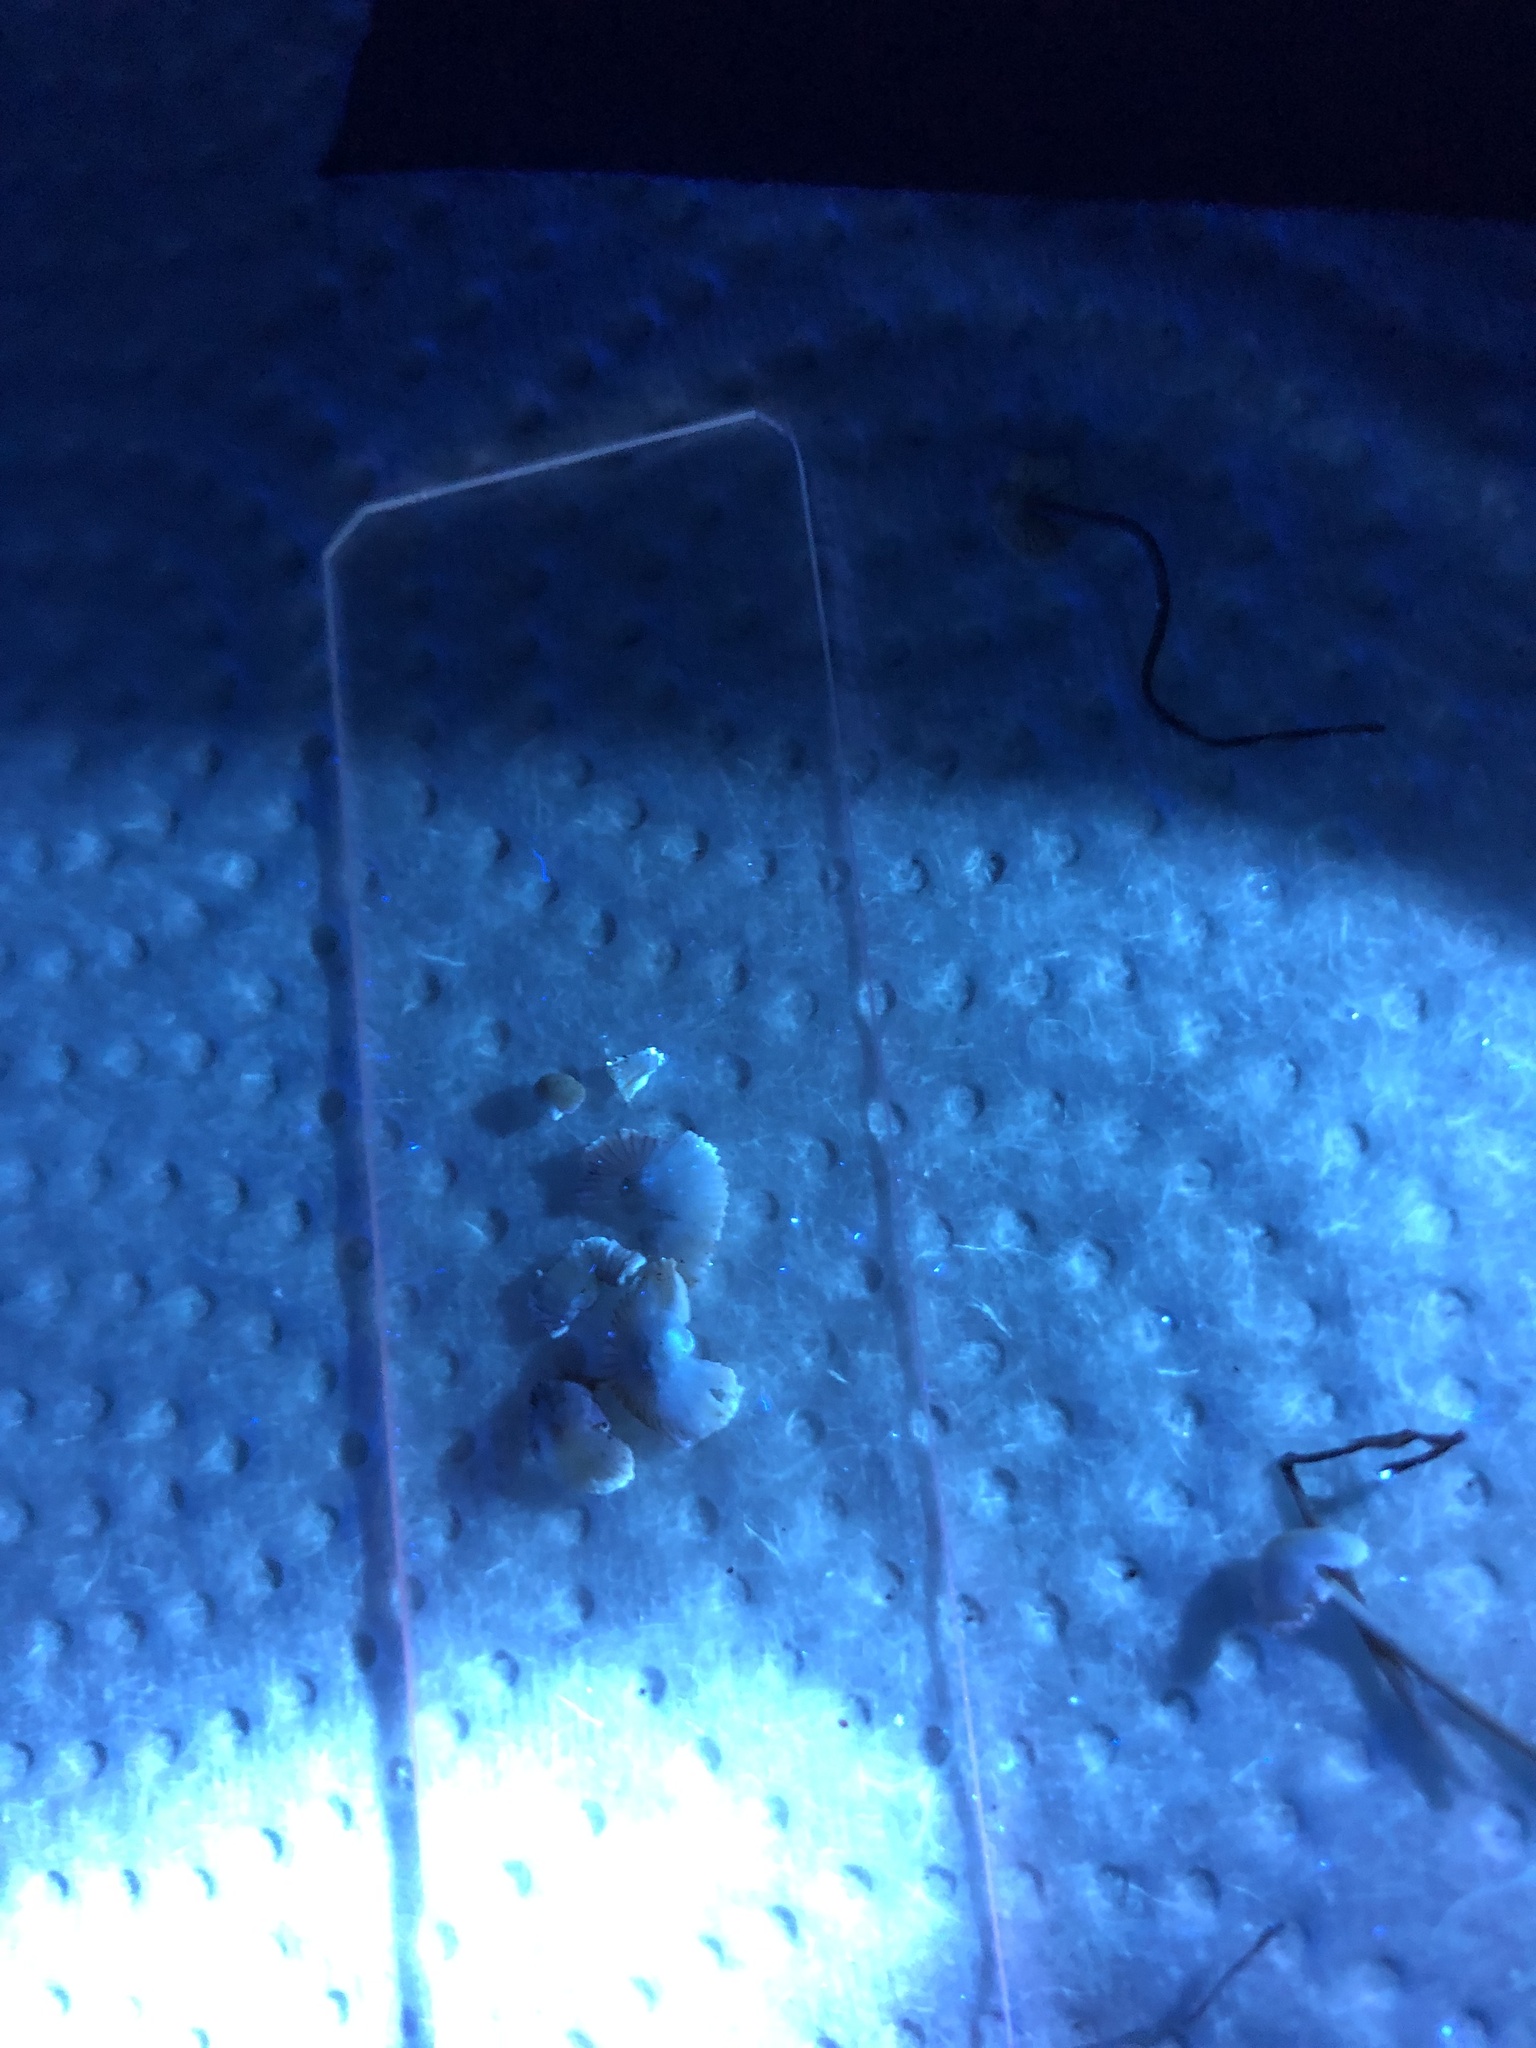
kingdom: Fungi
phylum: Basidiomycota
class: Agaricomycetes
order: Agaricales
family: Mycenaceae
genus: Mycena
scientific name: Mycena rebaudengoi
